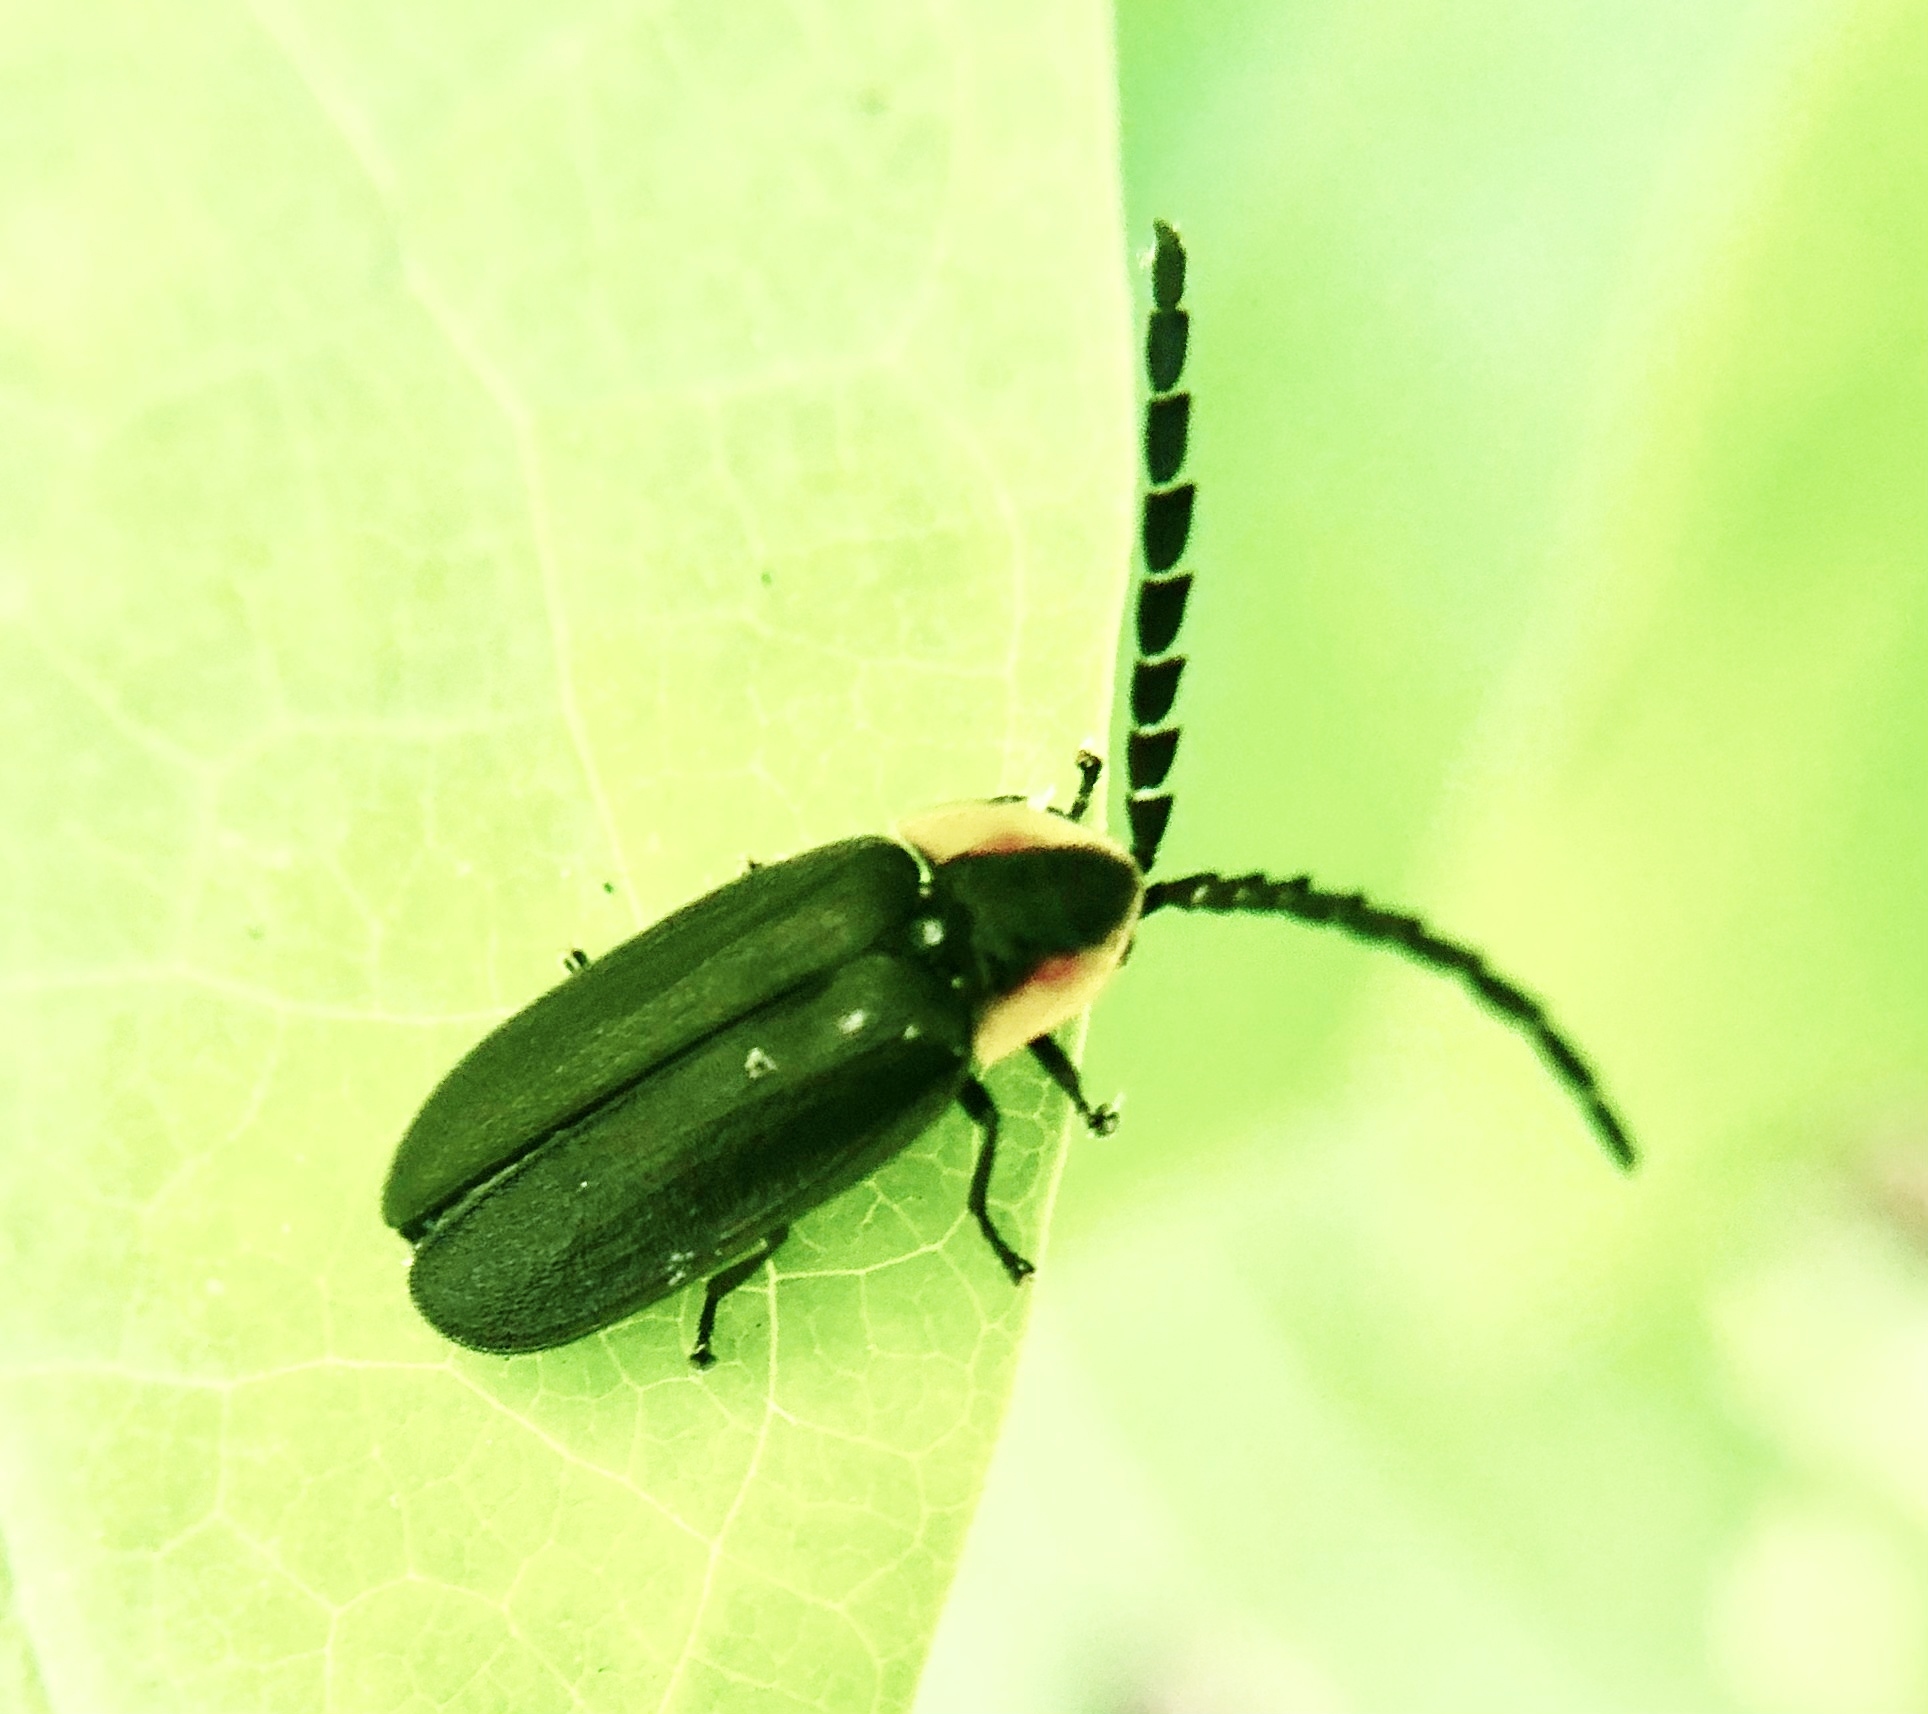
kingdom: Animalia
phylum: Arthropoda
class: Insecta
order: Coleoptera
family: Lampyridae
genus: Lucidota
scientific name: Lucidota atra
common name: Black firefly
